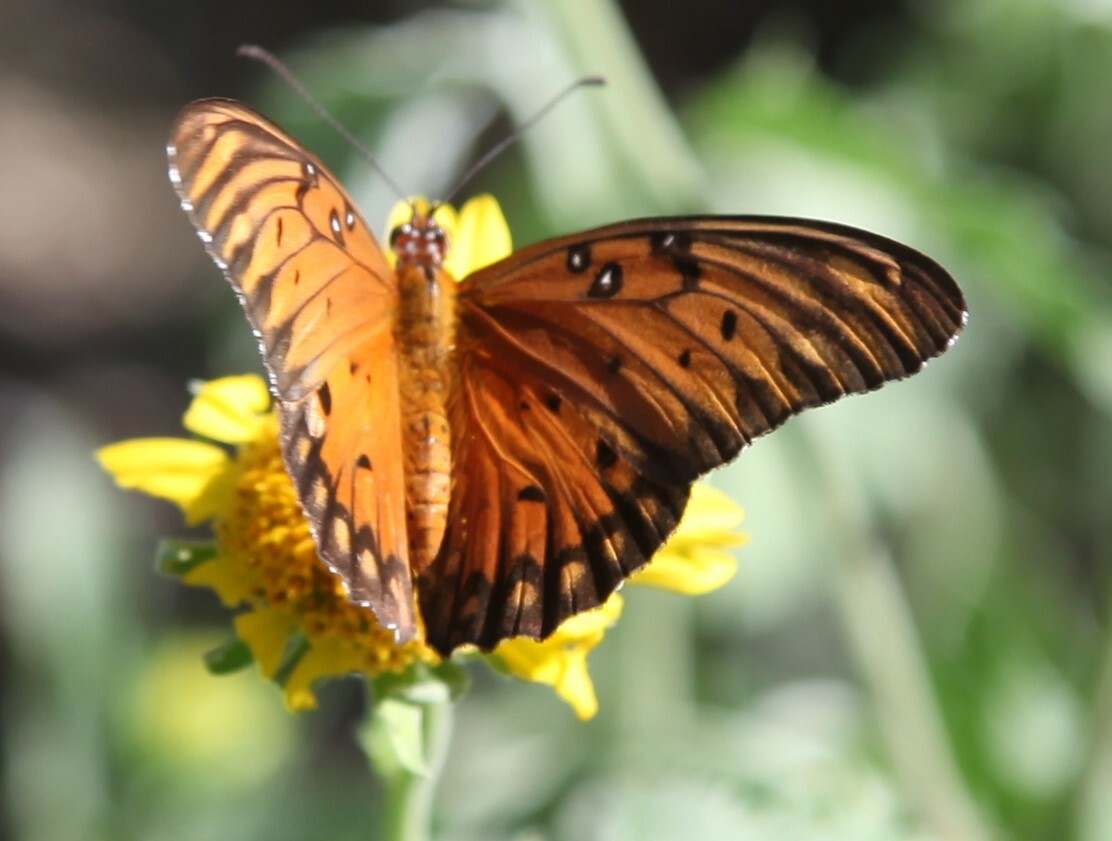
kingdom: Animalia
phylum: Arthropoda
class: Insecta
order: Lepidoptera
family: Nymphalidae
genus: Dione
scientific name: Dione vanillae
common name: Gulf fritillary
